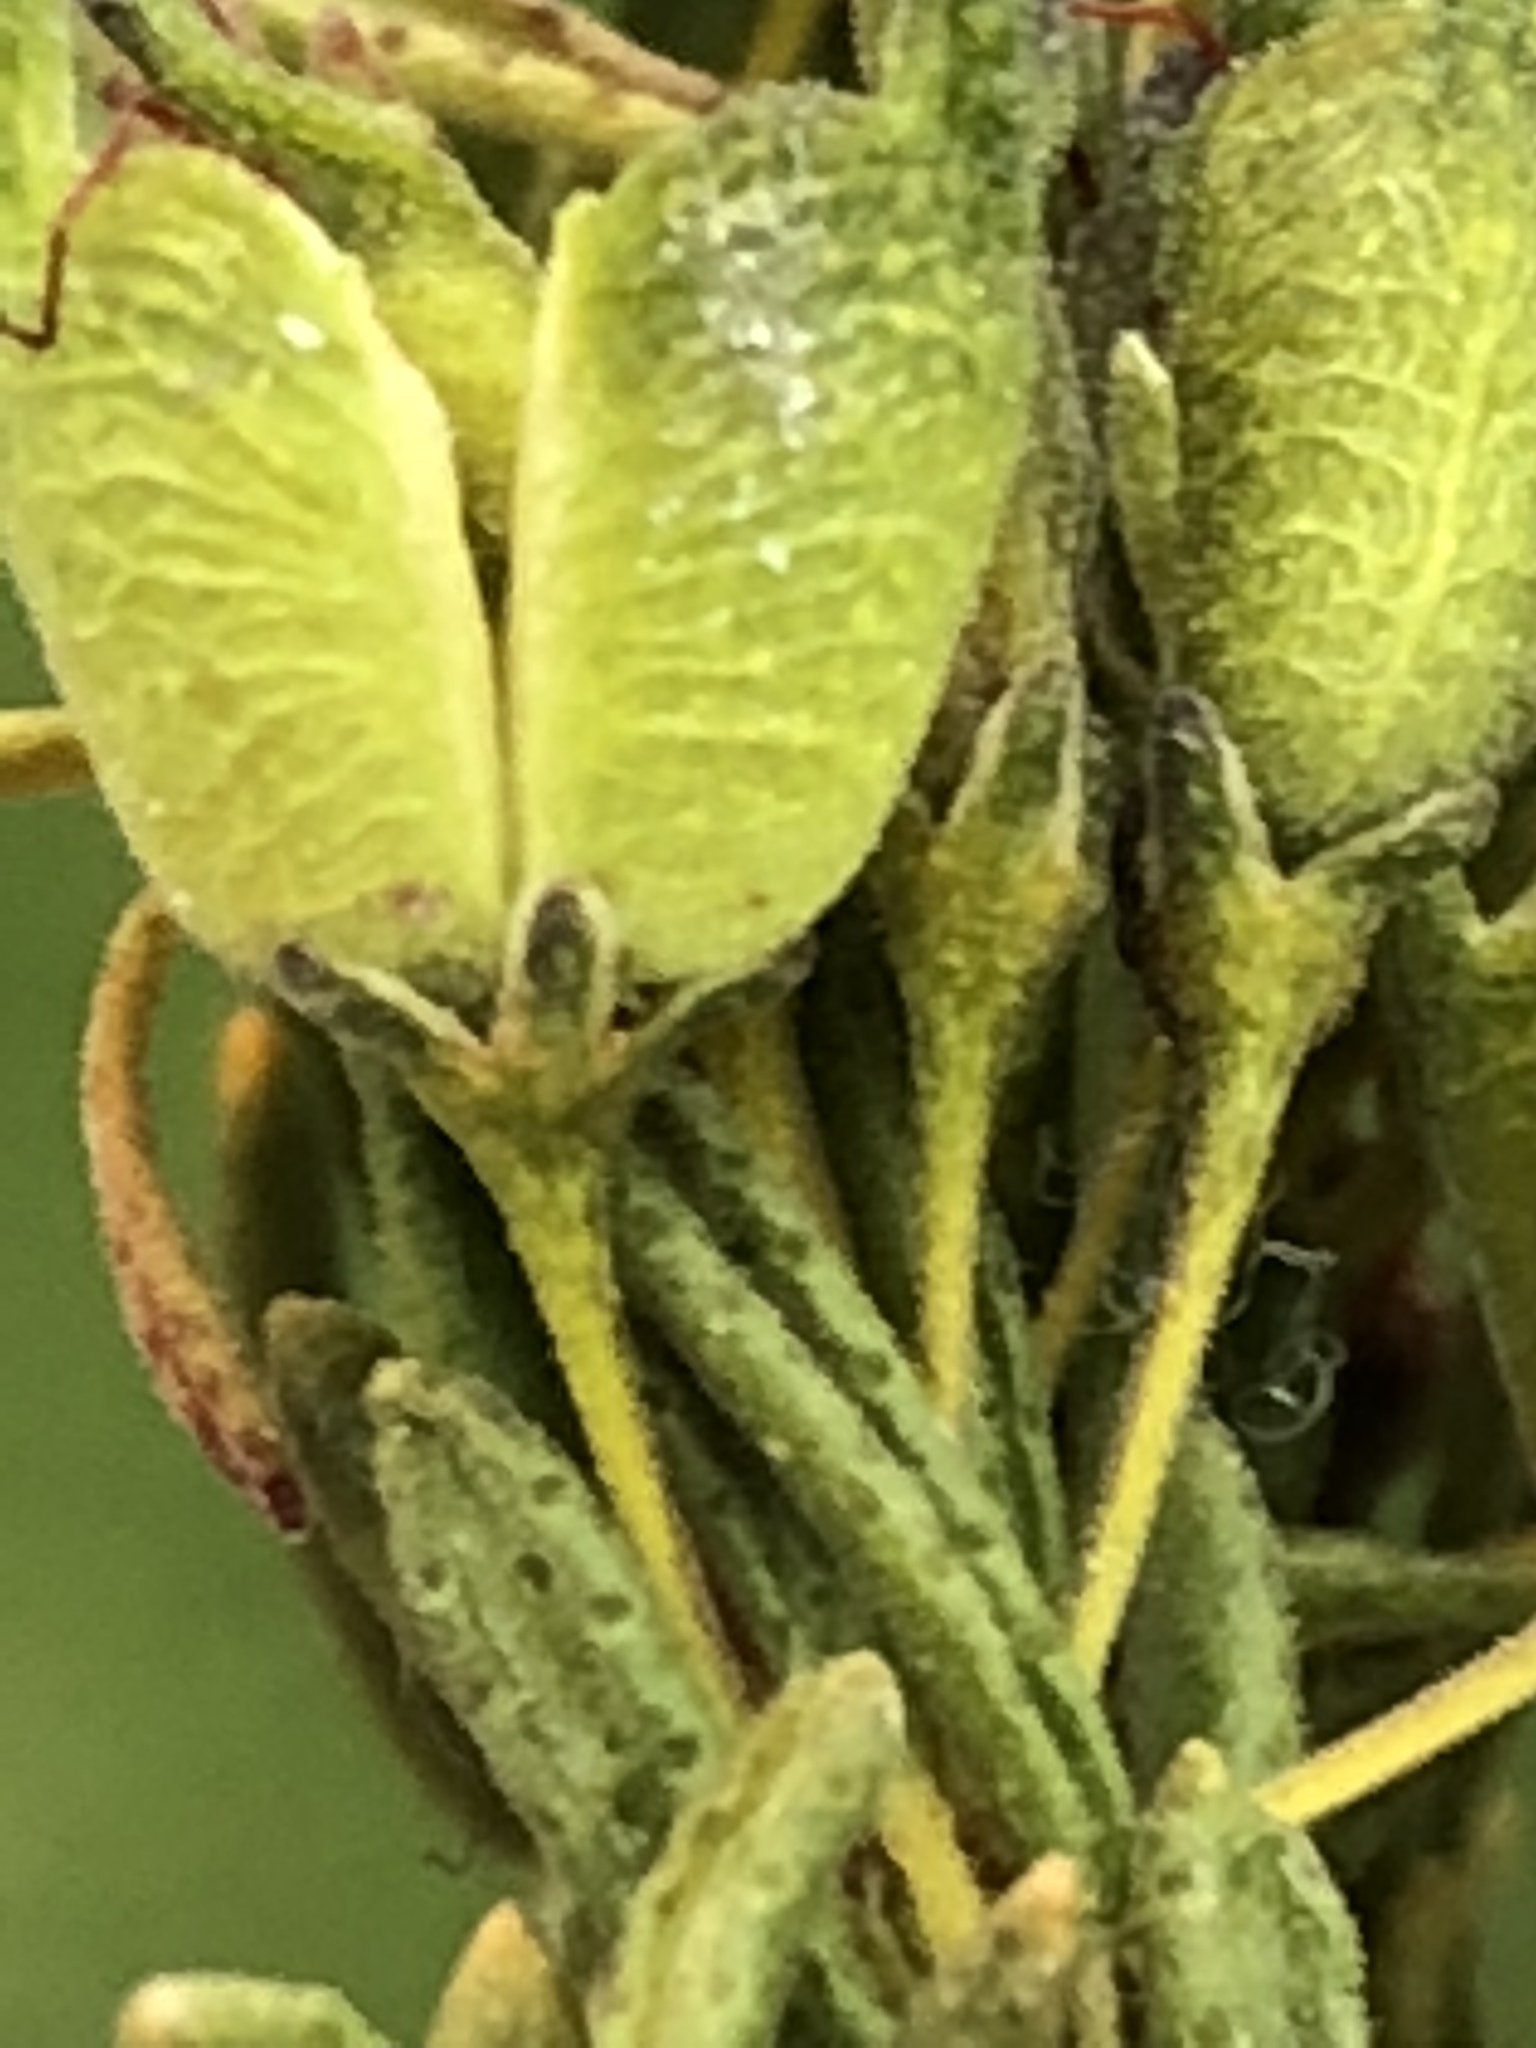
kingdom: Plantae
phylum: Tracheophyta
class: Magnoliopsida
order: Sapindales
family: Rutaceae
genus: Agathosma
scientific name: Agathosma mundtii
